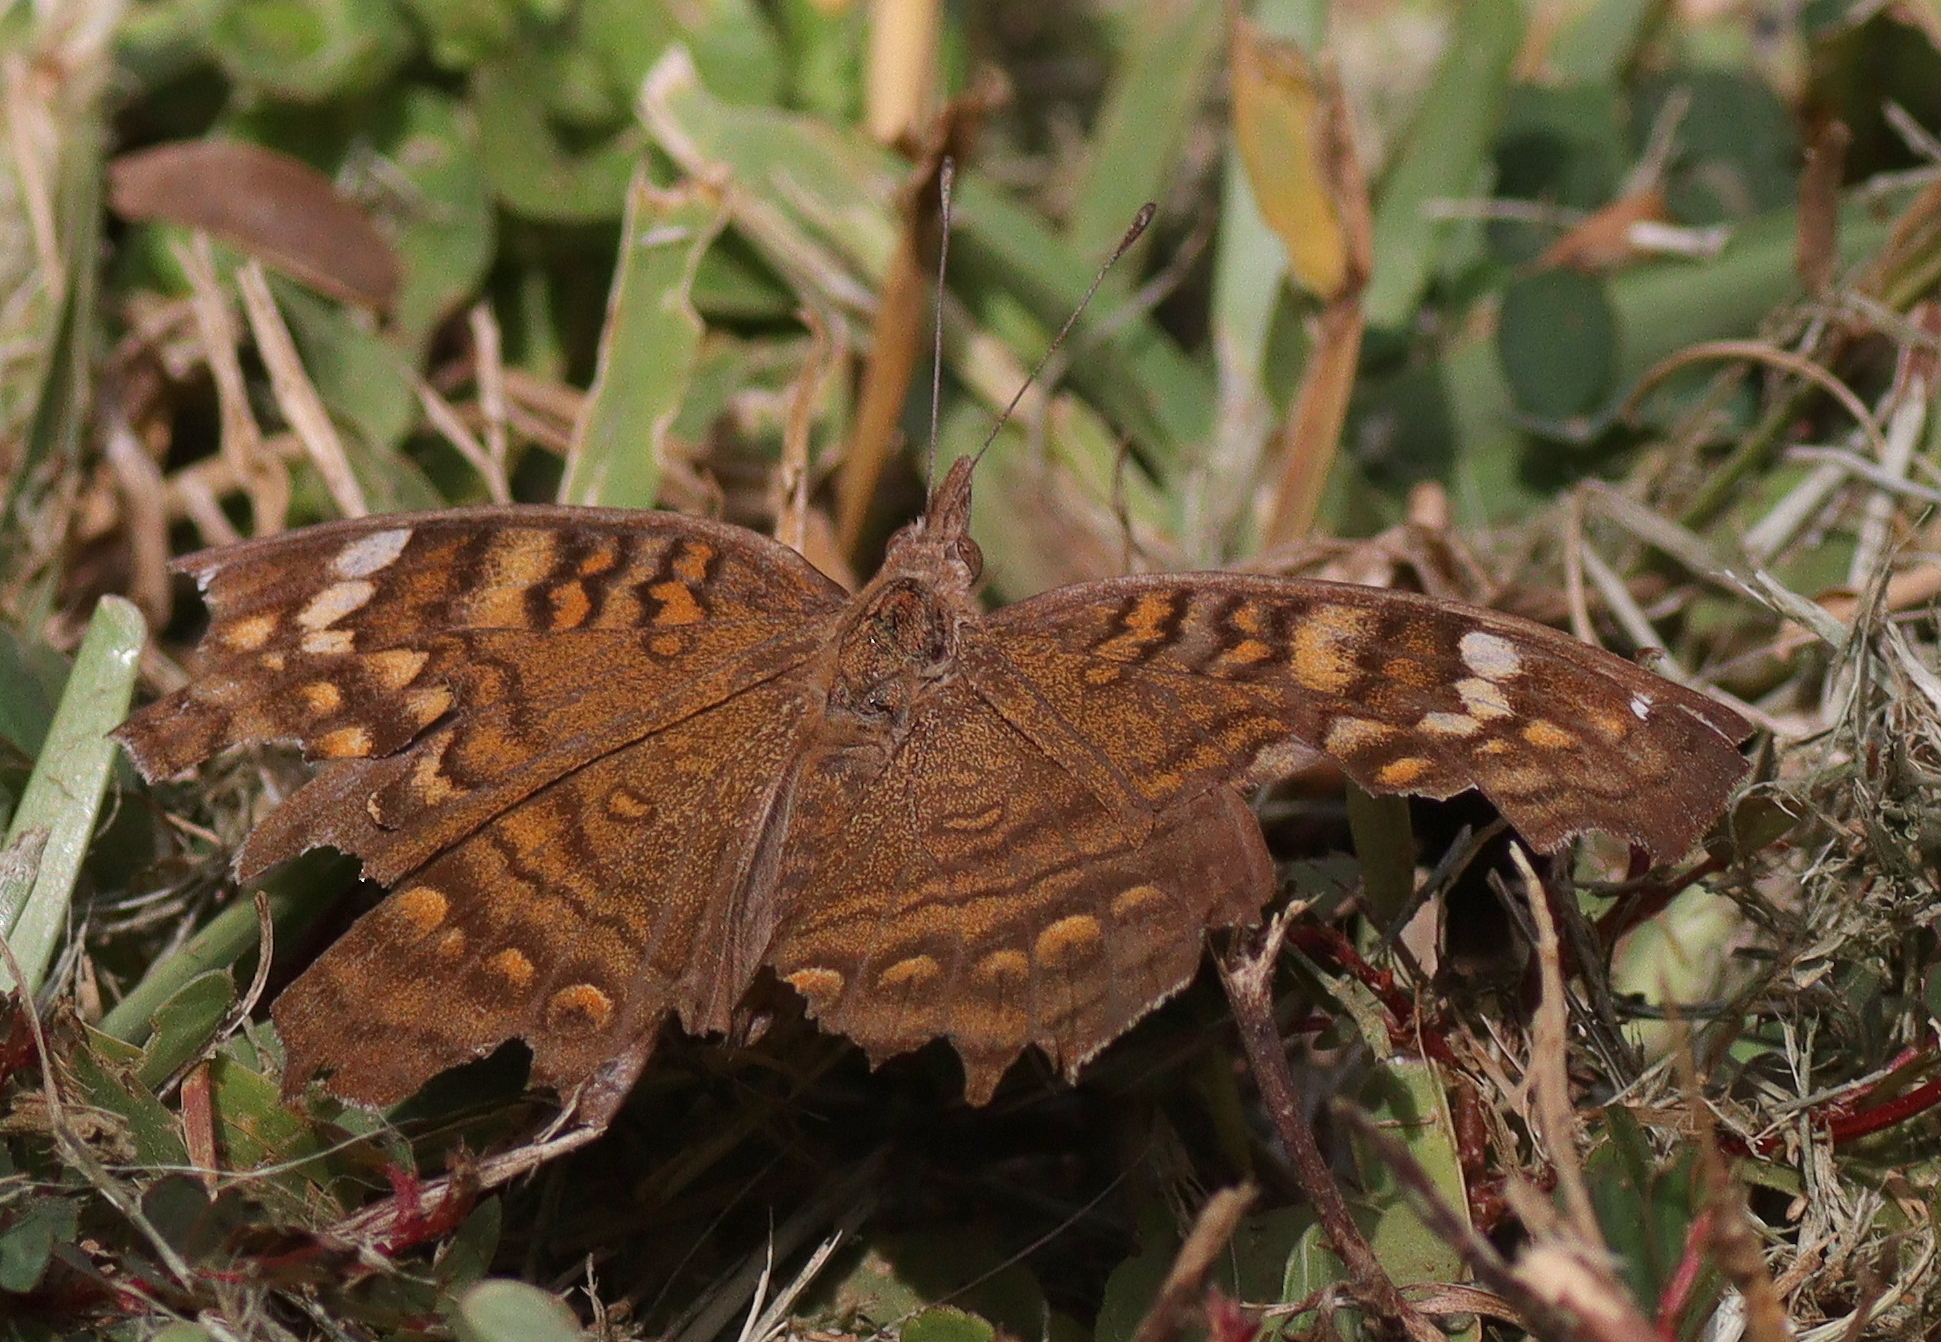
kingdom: Animalia
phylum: Arthropoda
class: Insecta
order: Lepidoptera
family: Nymphalidae
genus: Junonia
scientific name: Junonia chorimene
